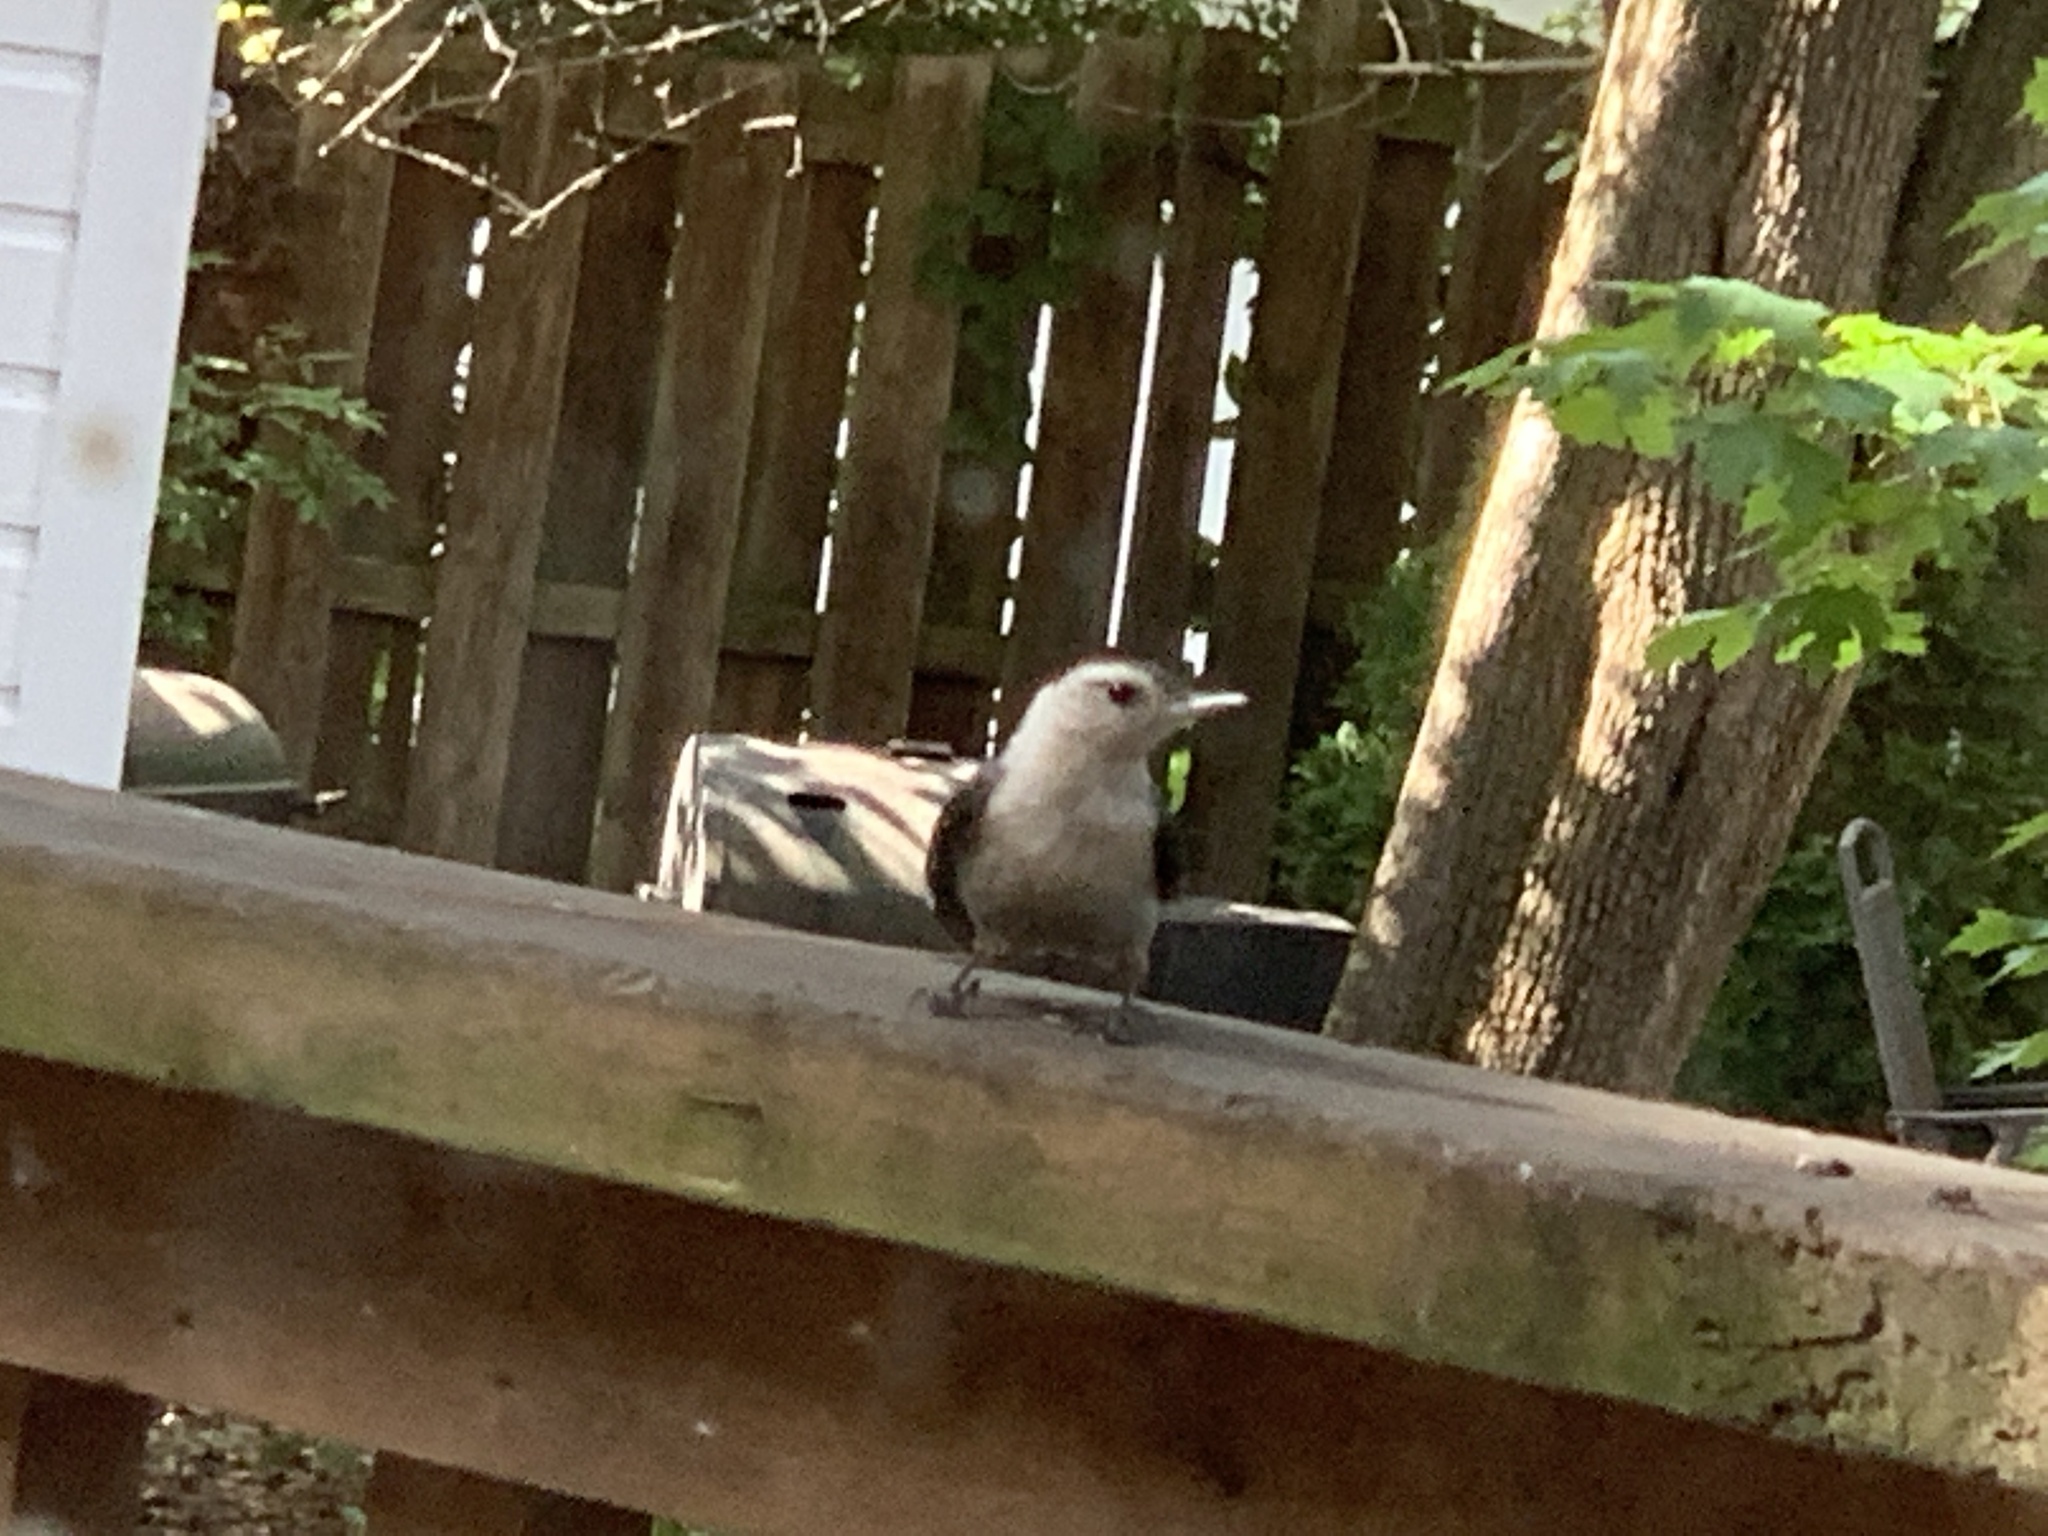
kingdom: Animalia
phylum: Chordata
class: Aves
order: Passeriformes
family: Sittidae
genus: Sitta
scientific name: Sitta carolinensis
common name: White-breasted nuthatch
